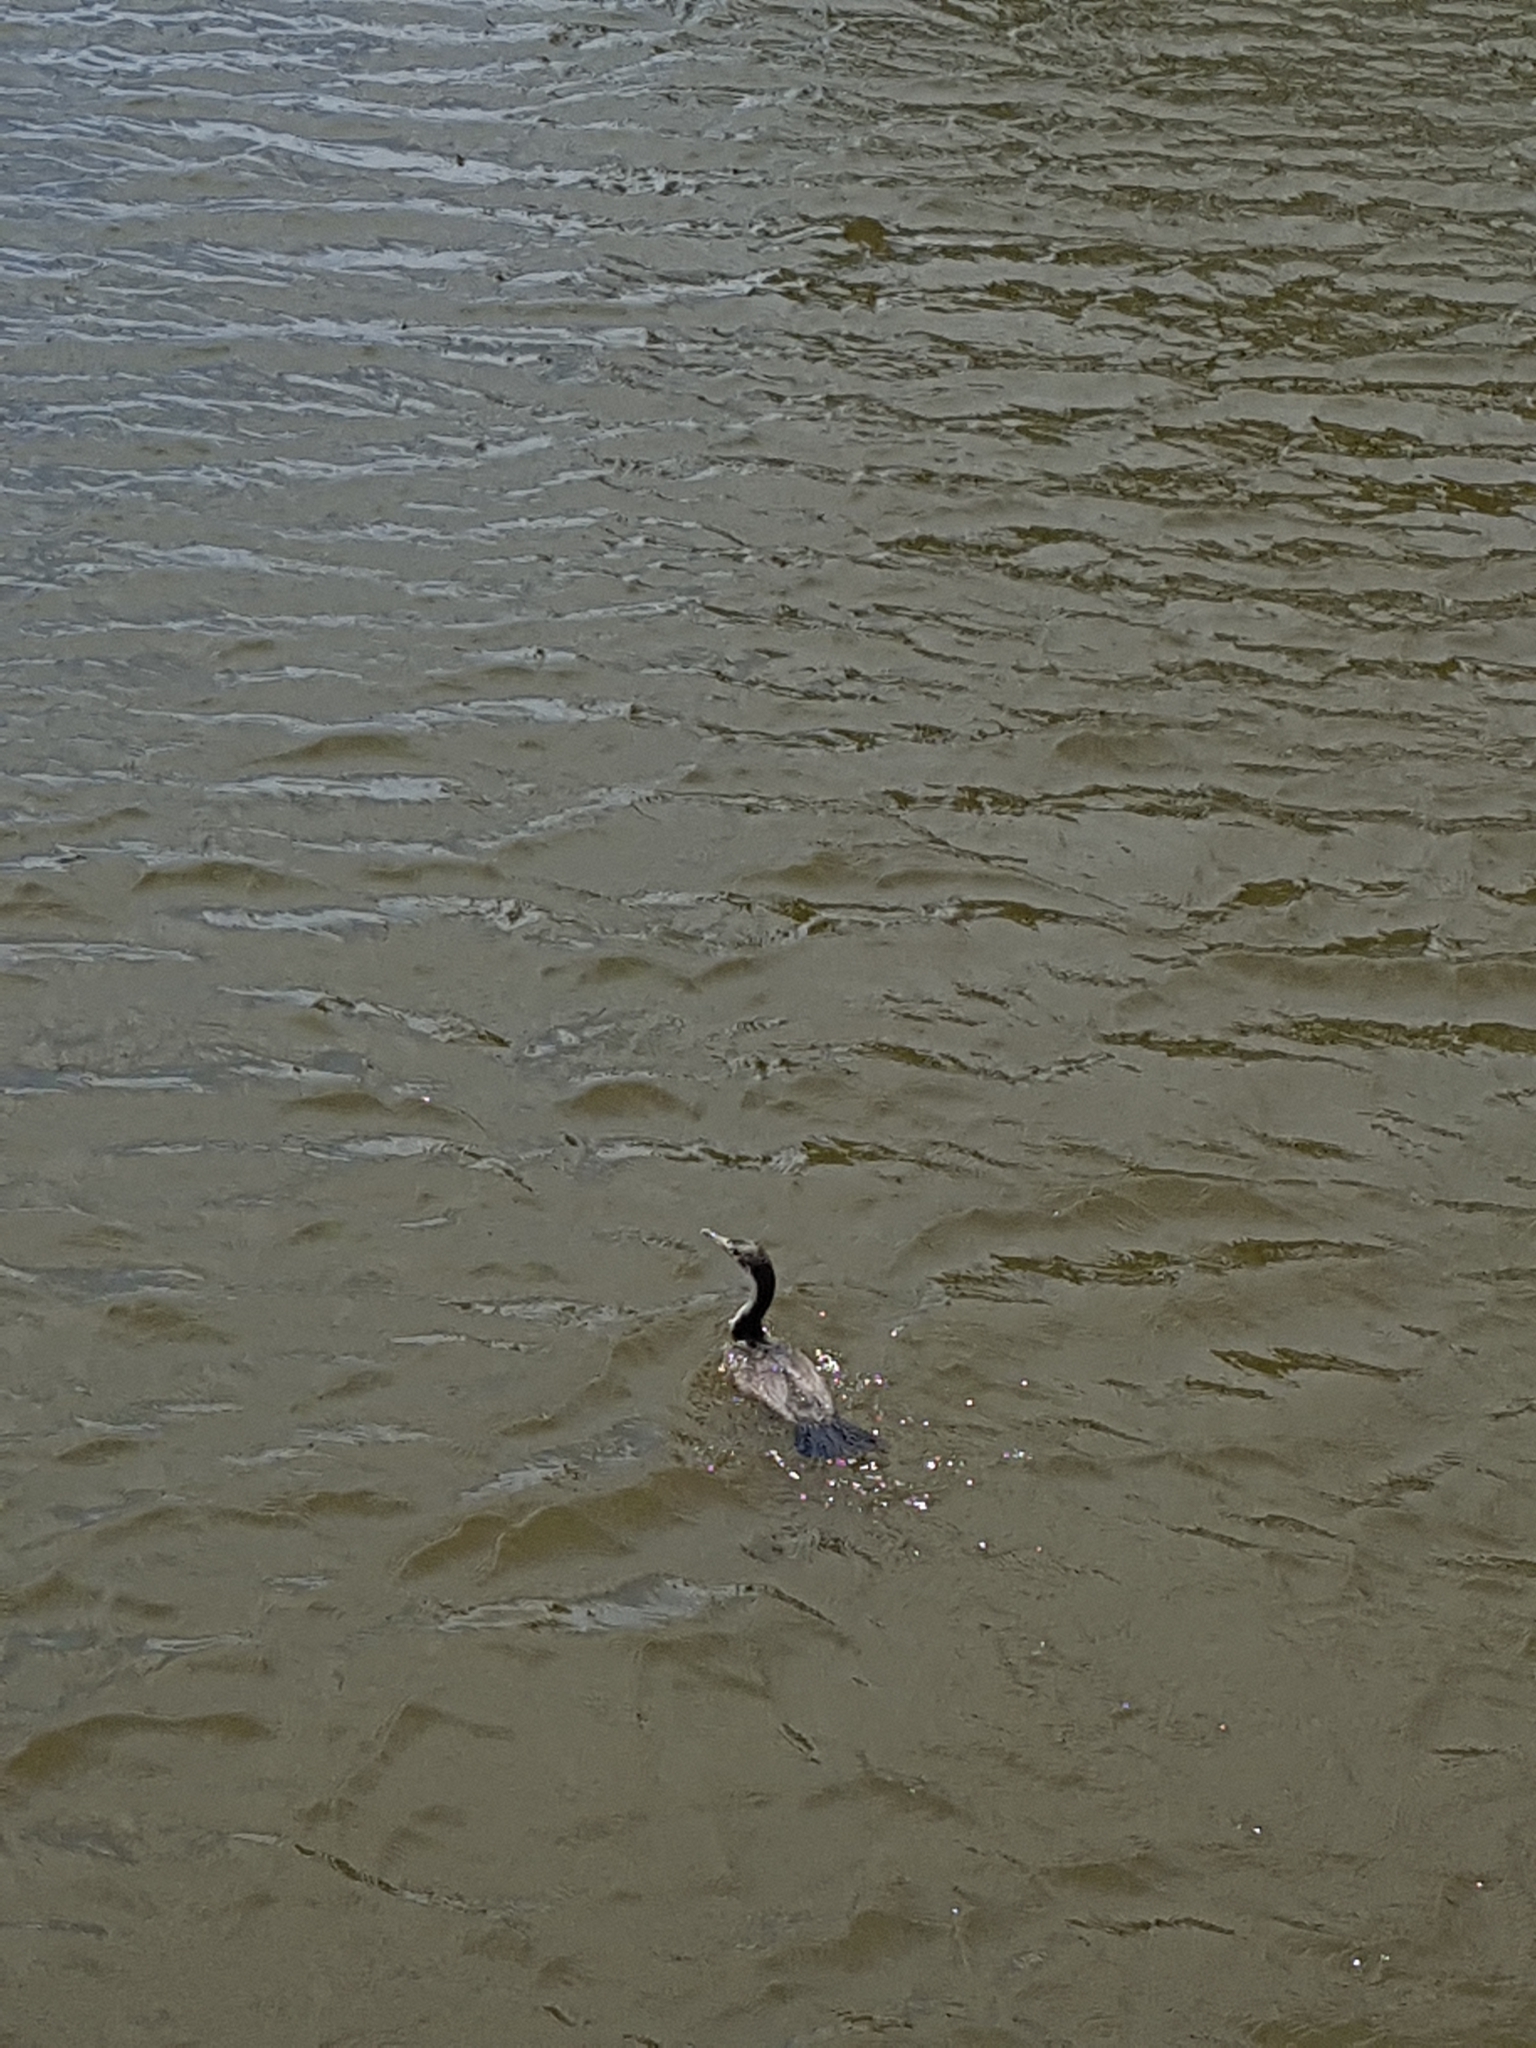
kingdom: Animalia
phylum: Chordata
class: Aves
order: Suliformes
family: Phalacrocoracidae
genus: Phalacrocorax
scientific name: Phalacrocorax punctatus
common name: Spotted shag
